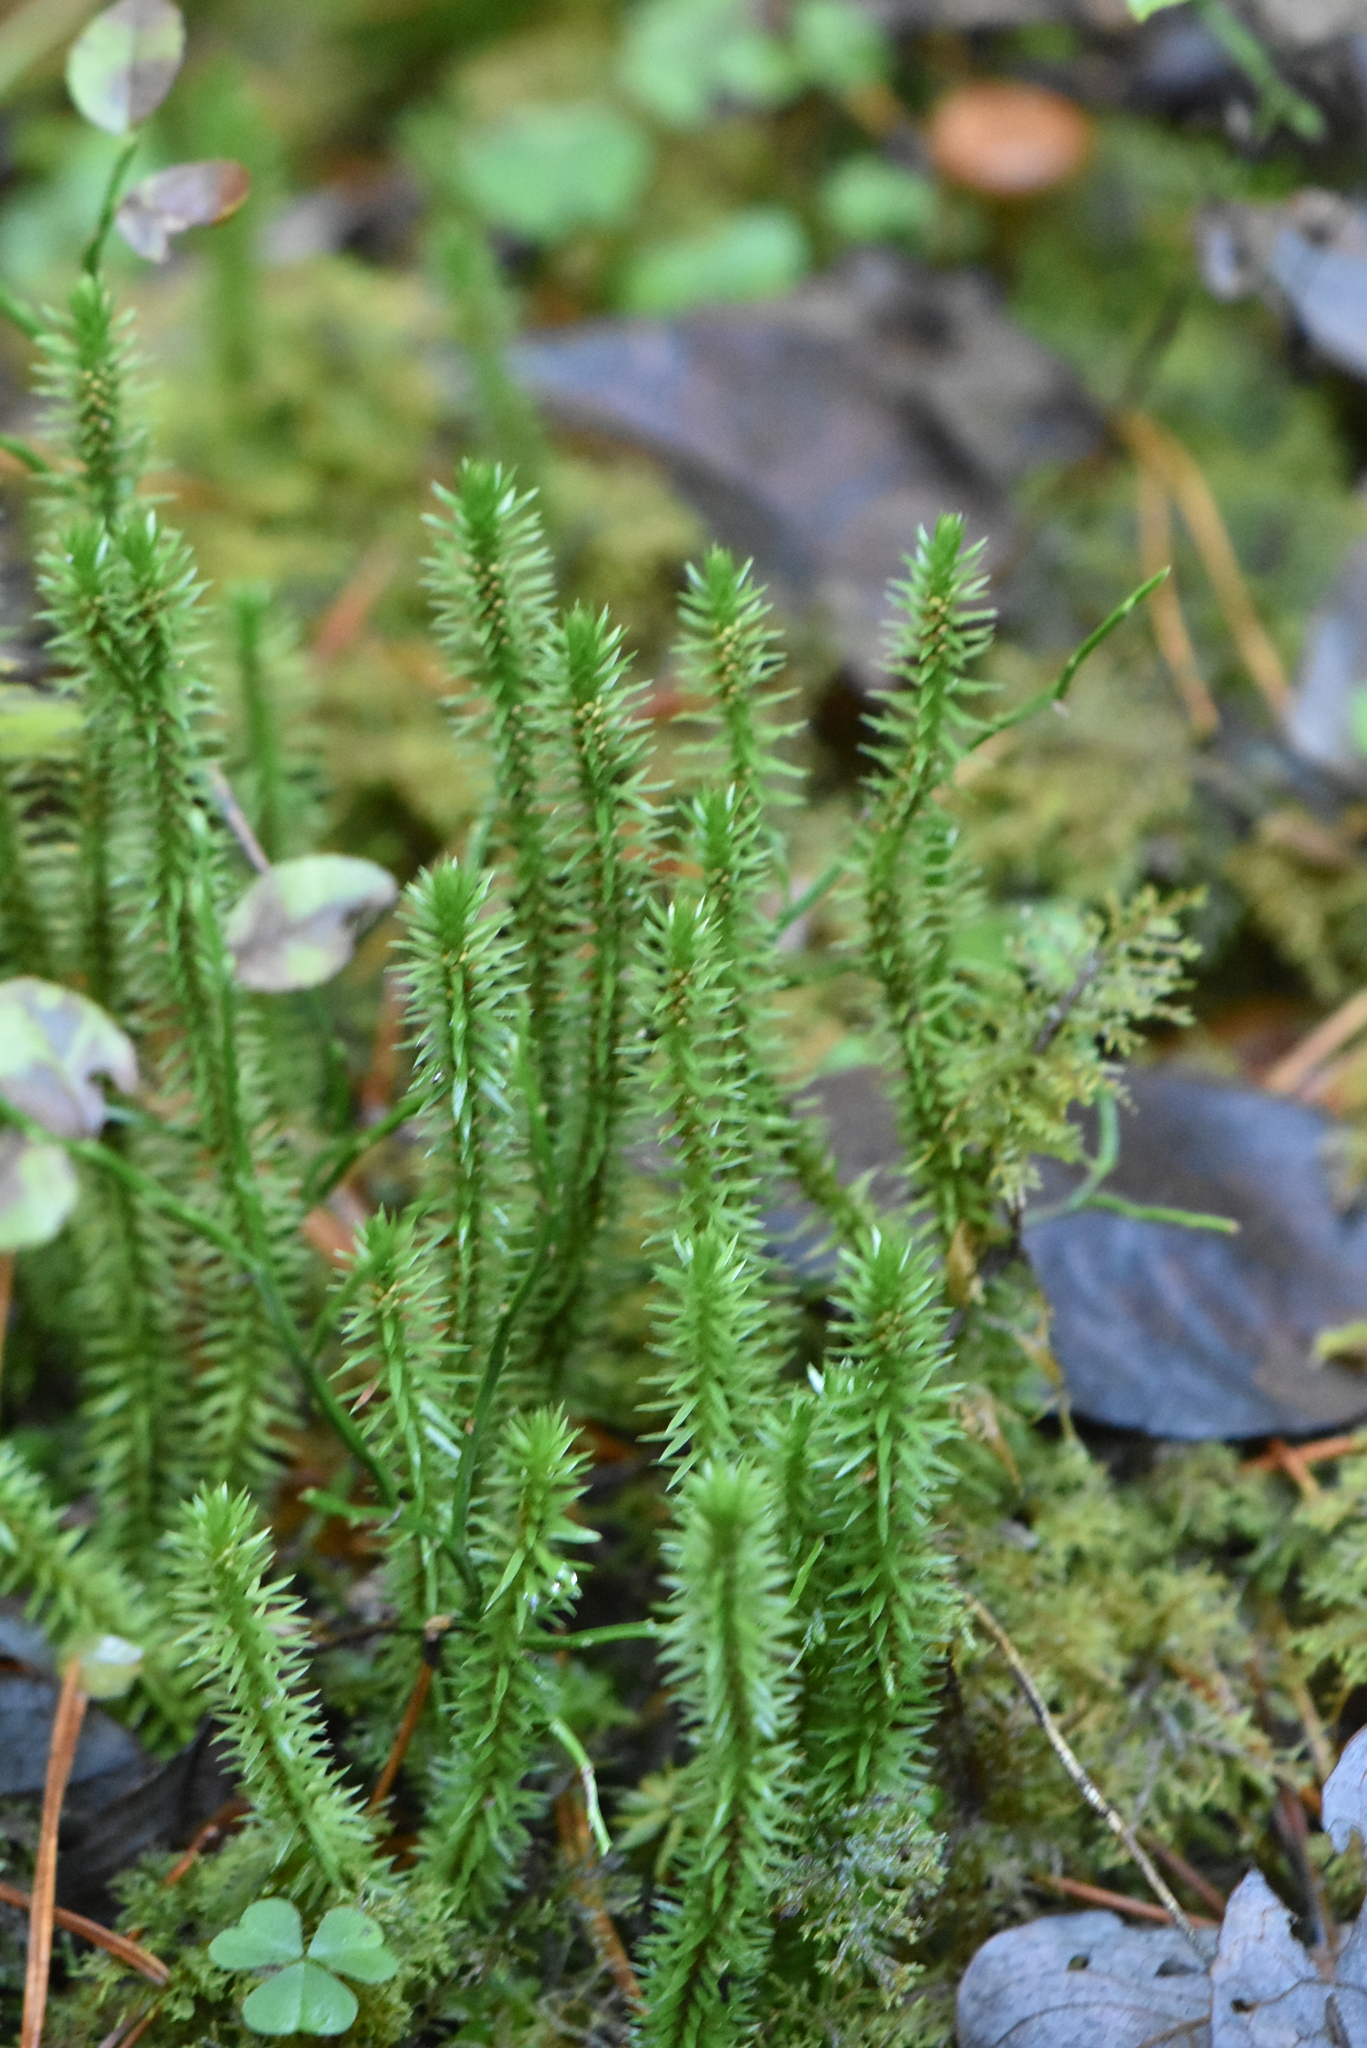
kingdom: Plantae
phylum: Tracheophyta
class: Lycopodiopsida
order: Lycopodiales
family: Lycopodiaceae
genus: Spinulum
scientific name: Spinulum annotinum
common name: Interrupted club-moss
